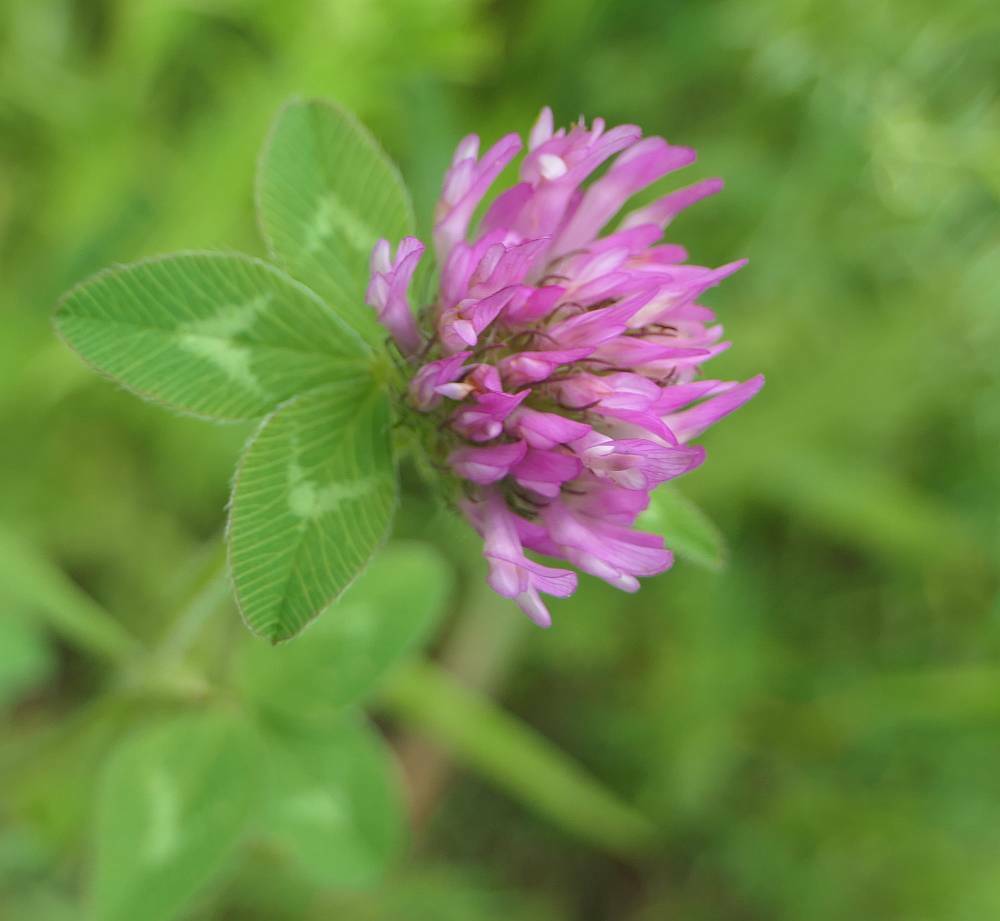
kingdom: Plantae
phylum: Tracheophyta
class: Magnoliopsida
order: Fabales
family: Fabaceae
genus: Trifolium
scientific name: Trifolium pratense
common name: Red clover
